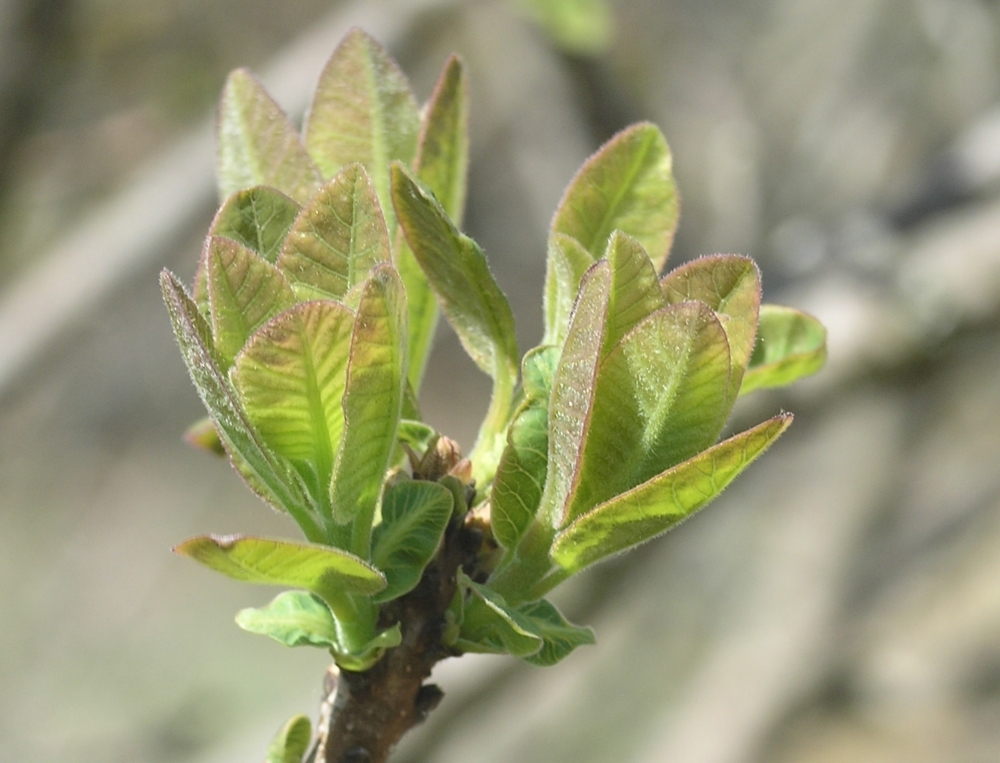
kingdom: Plantae
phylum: Tracheophyta
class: Magnoliopsida
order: Sapindales
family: Anacardiaceae
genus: Cotinus
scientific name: Cotinus coggygria
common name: Smoke-tree
